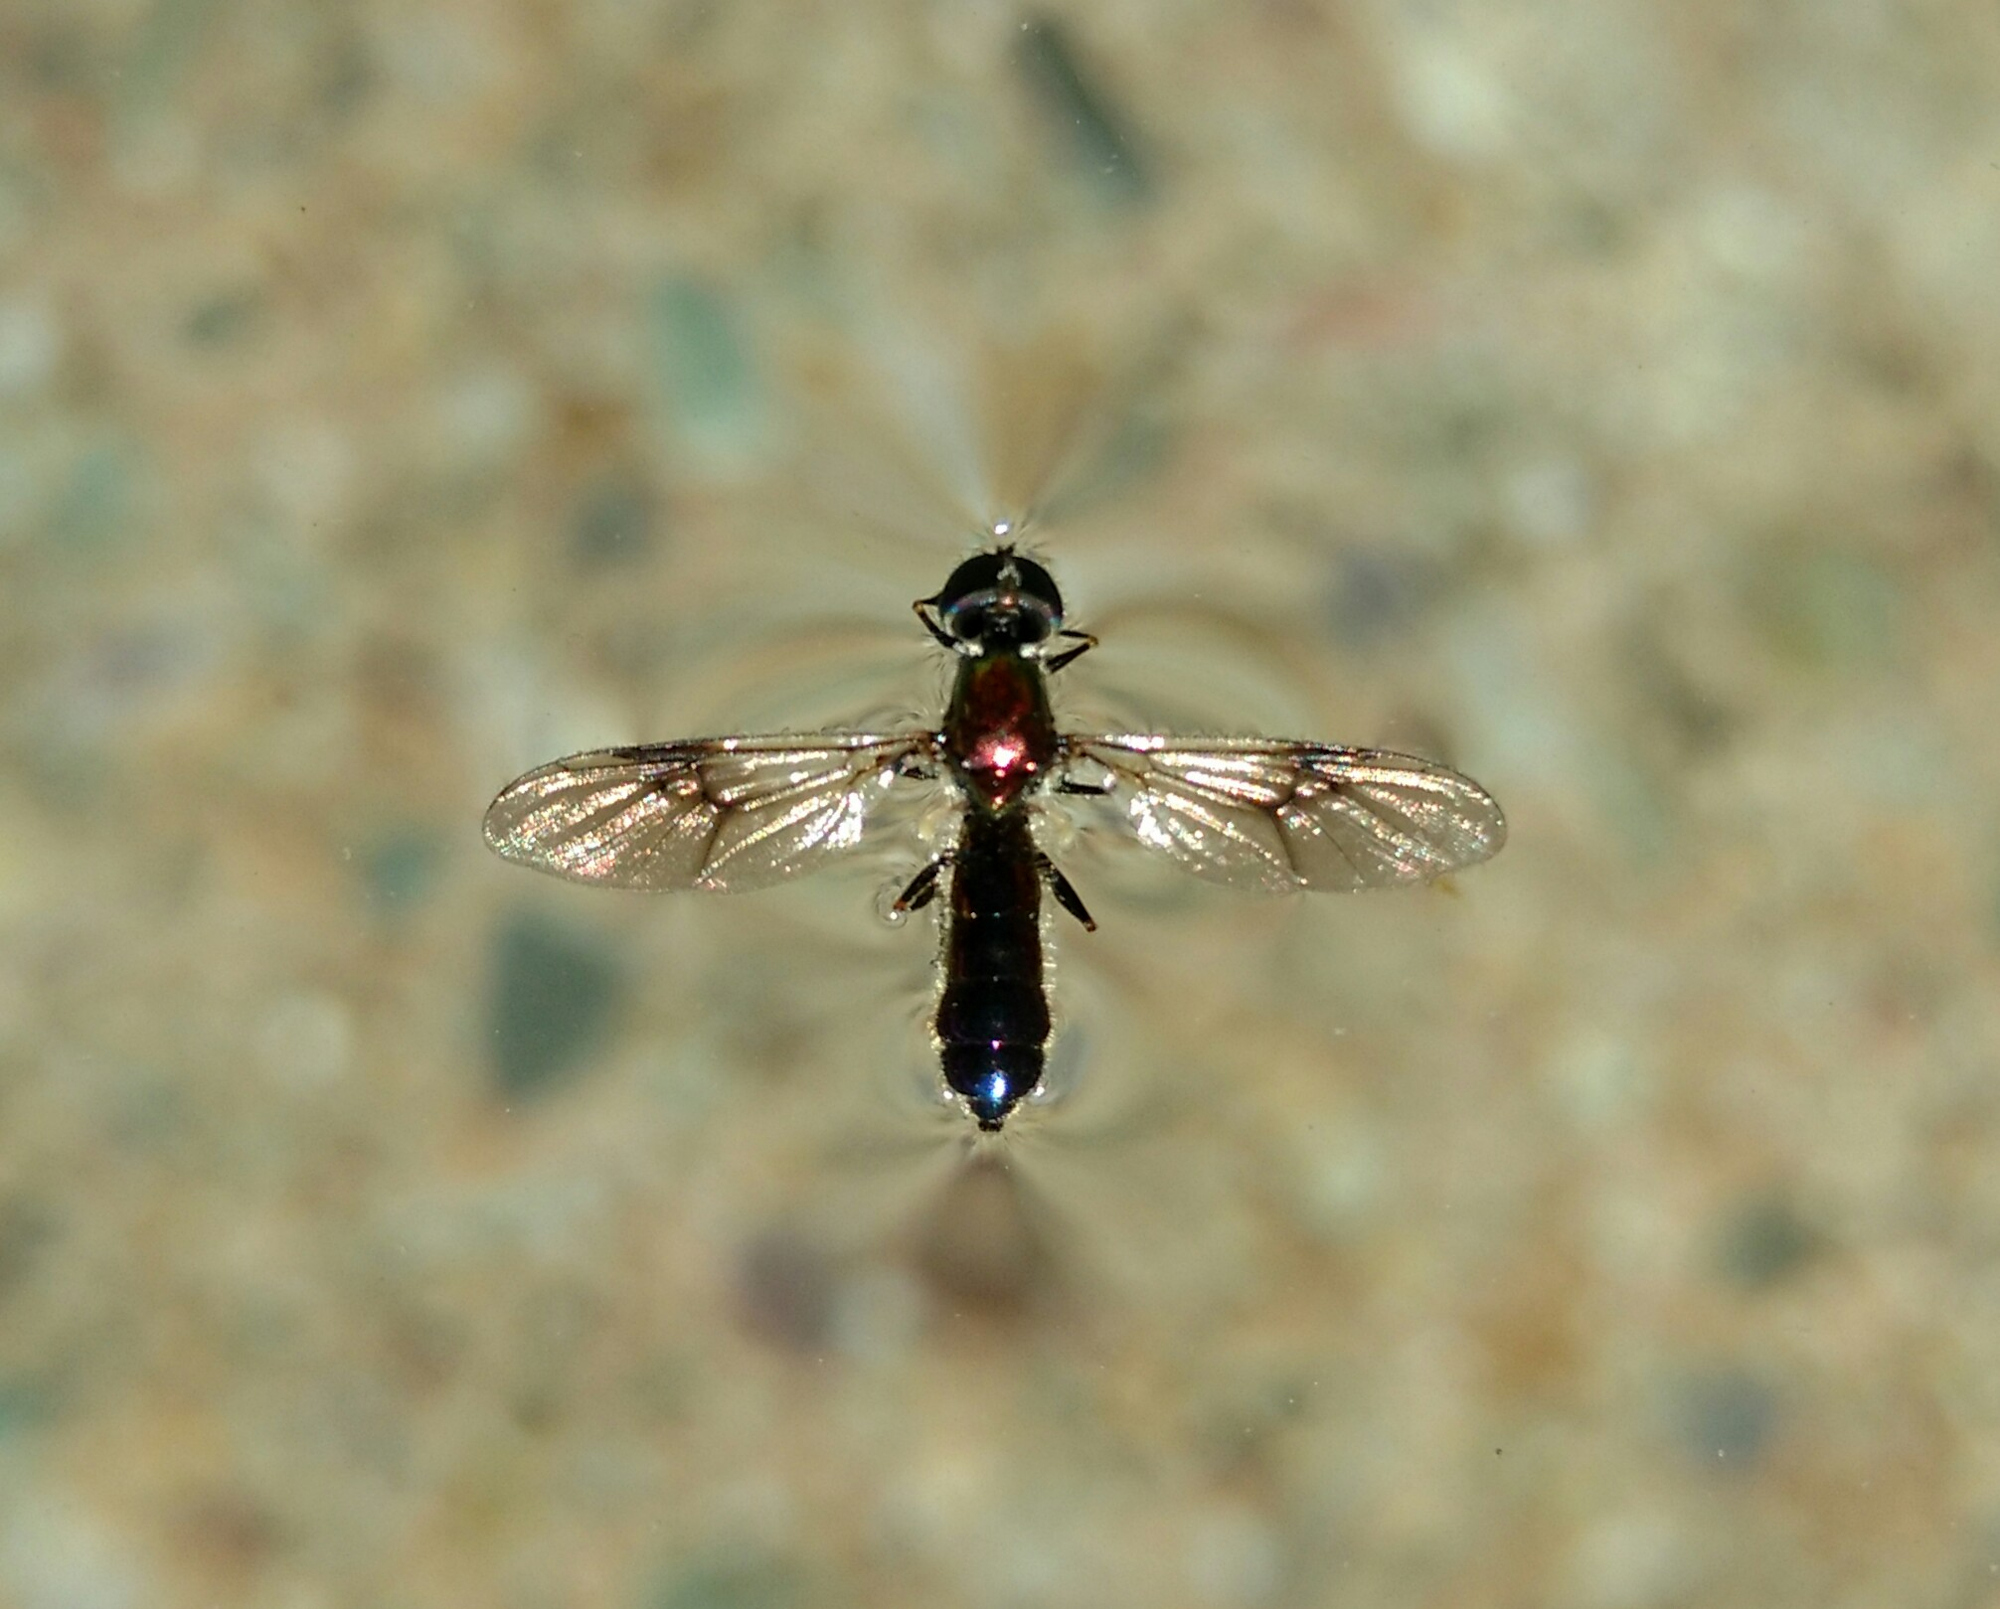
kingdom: Animalia
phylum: Arthropoda
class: Insecta
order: Diptera
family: Stratiomyidae
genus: Sargus
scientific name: Sargus cuprarius
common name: Soldier fly
